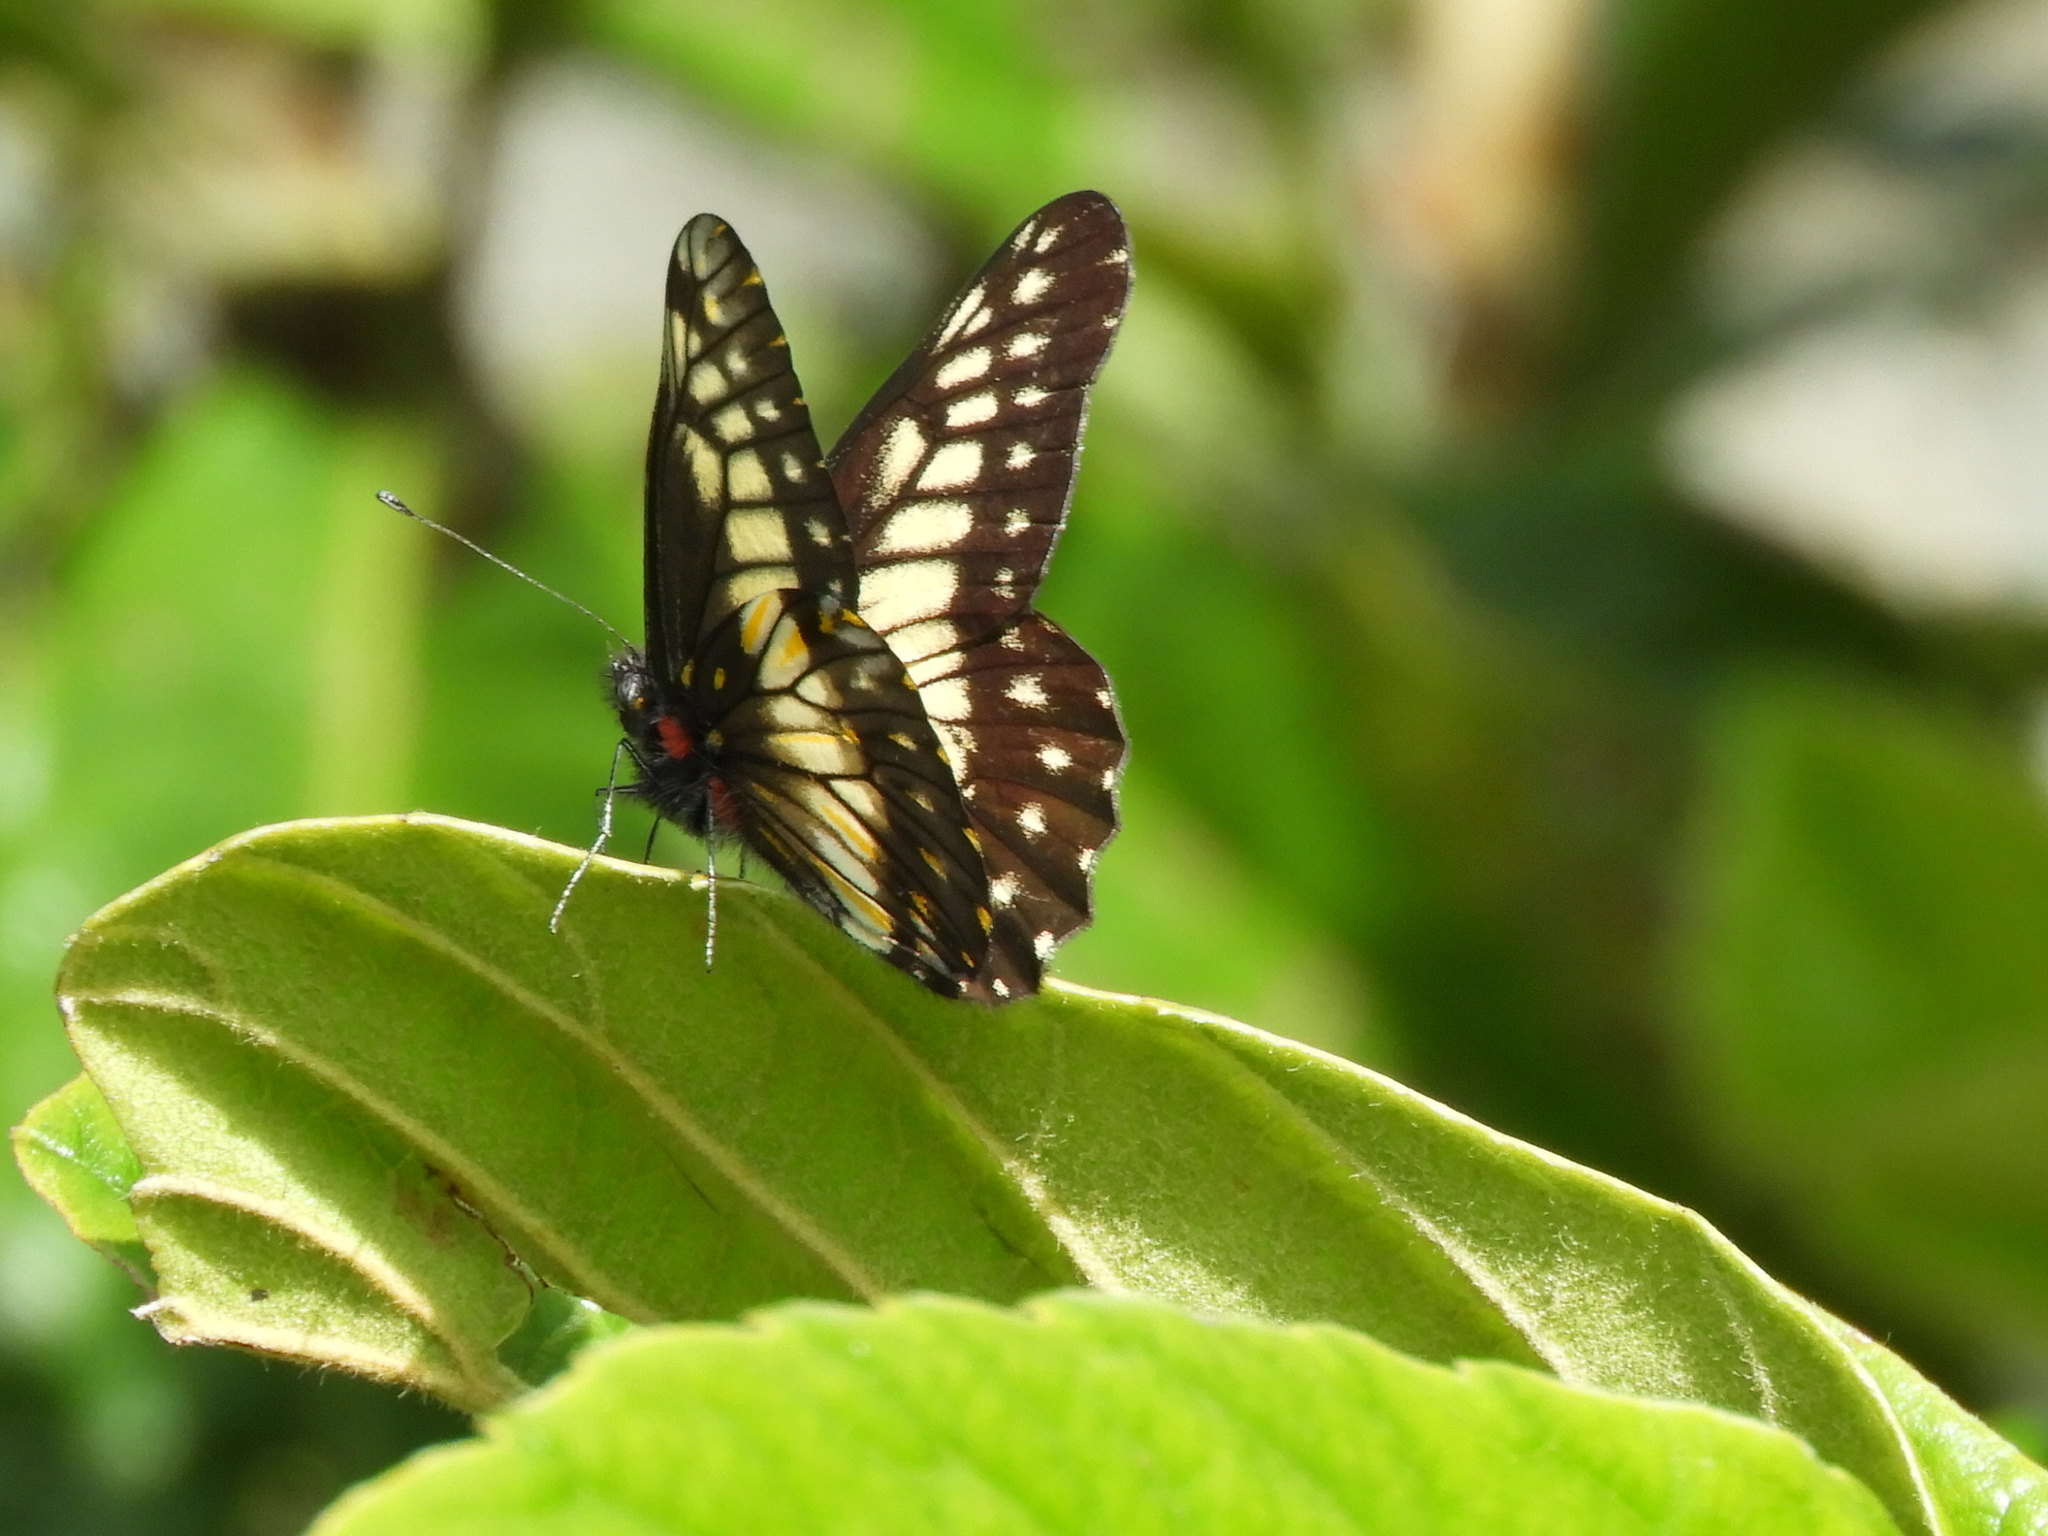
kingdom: Animalia
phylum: Arthropoda
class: Insecta
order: Lepidoptera
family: Pieridae
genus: Archonias
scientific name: Archonias nimbice
